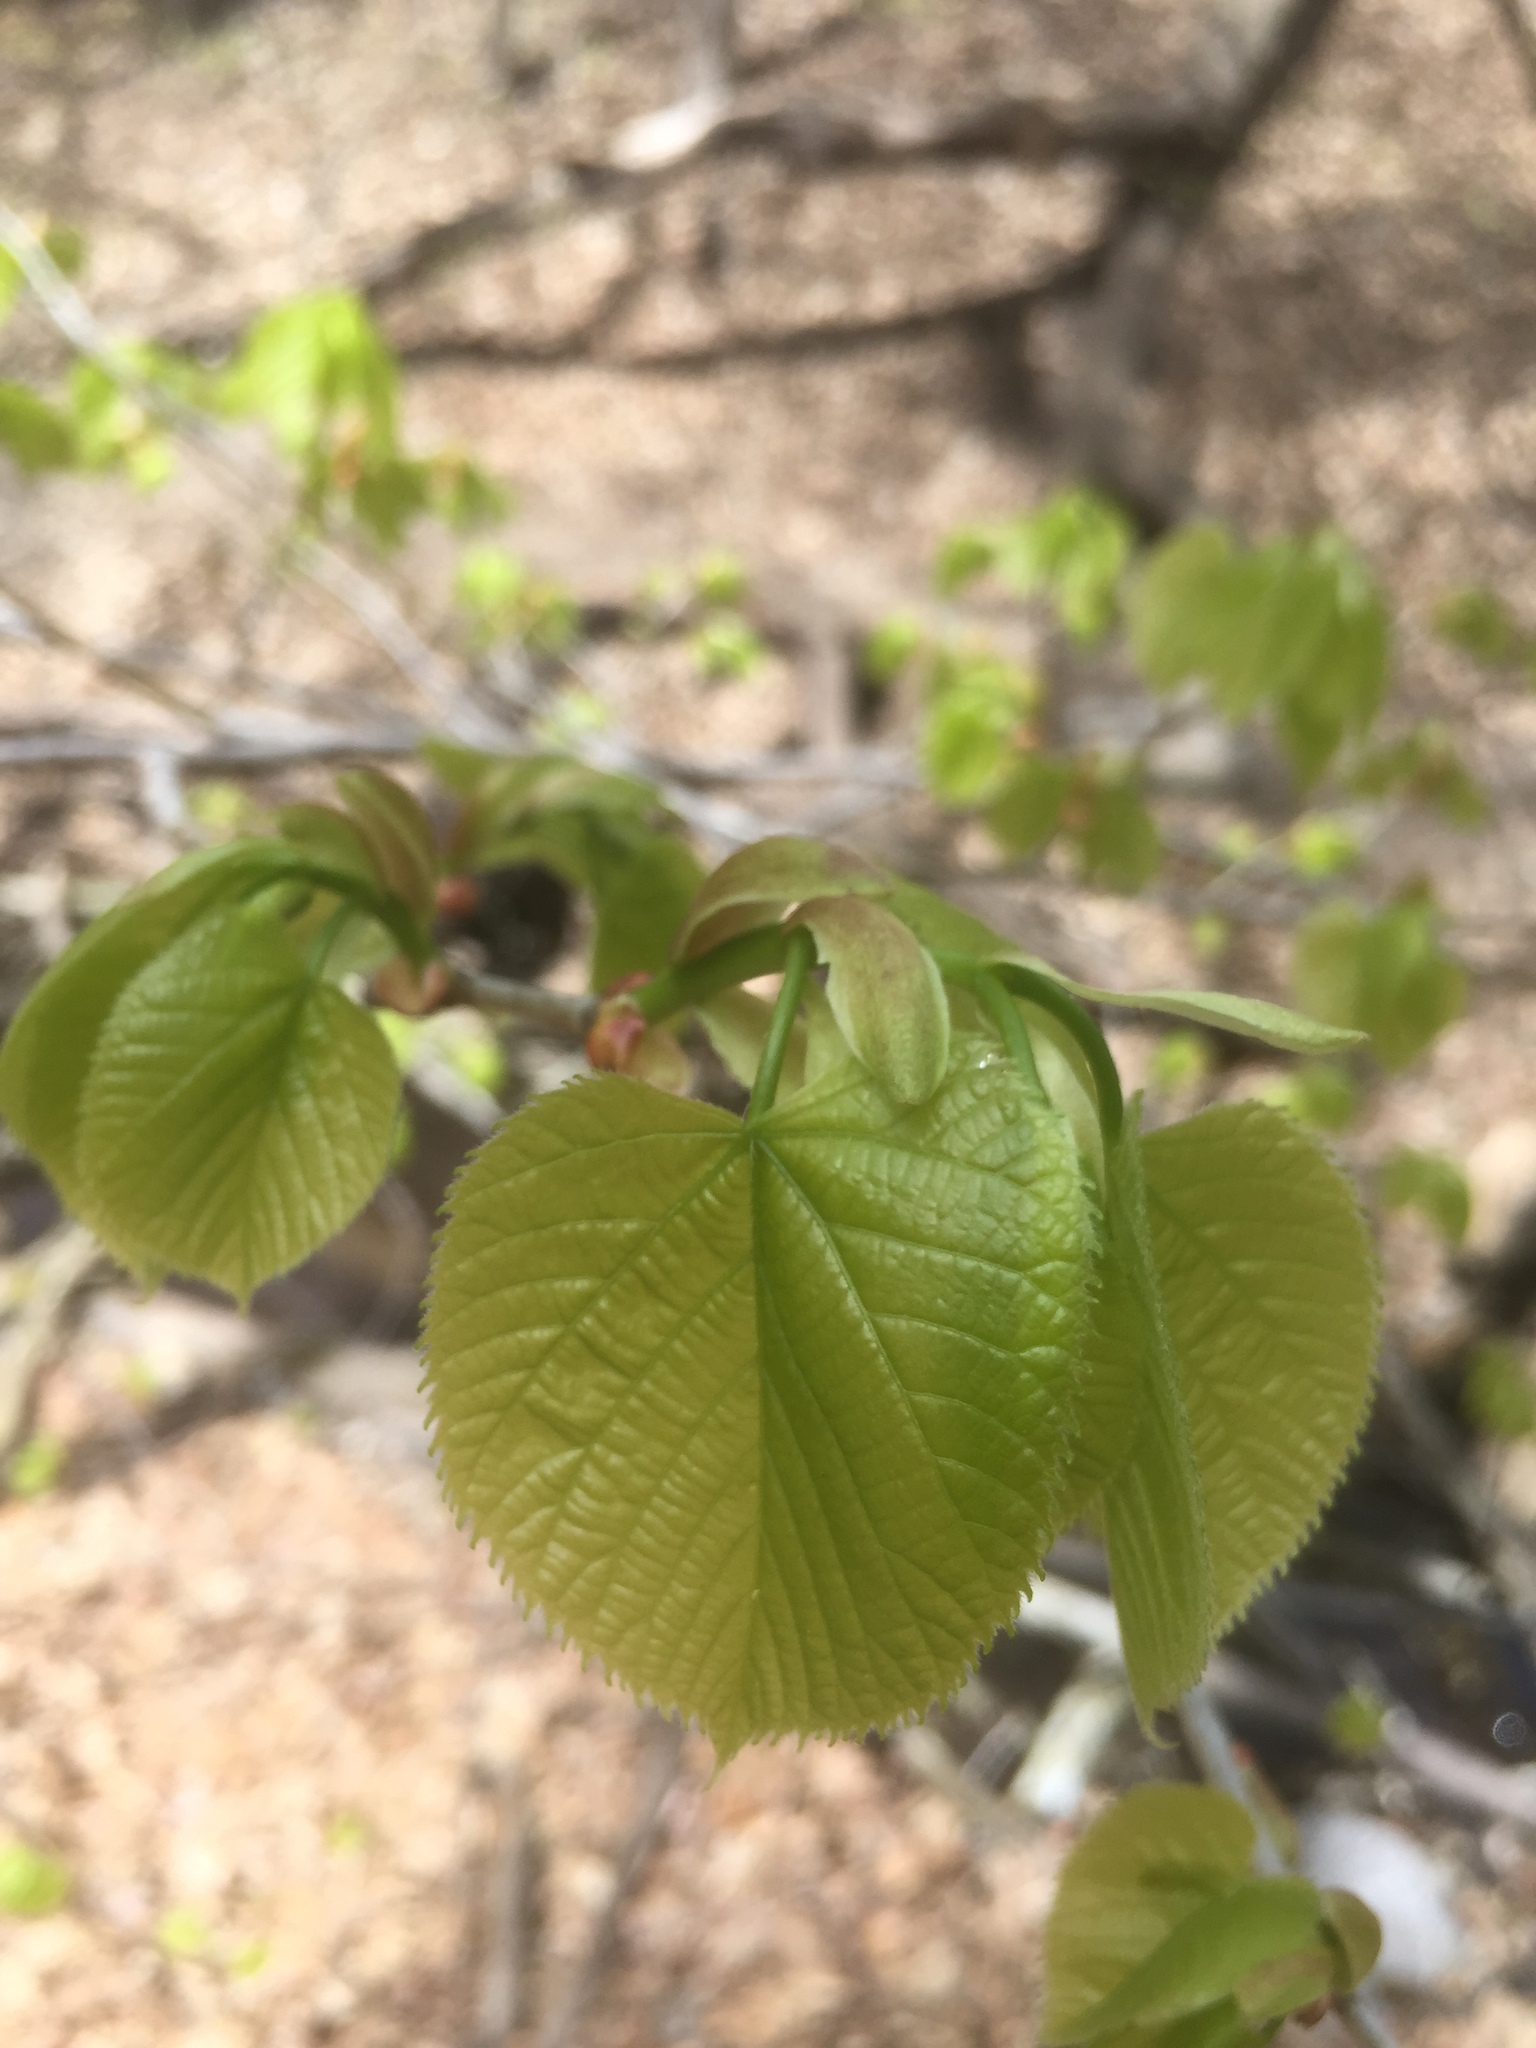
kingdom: Plantae
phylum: Tracheophyta
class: Magnoliopsida
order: Malvales
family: Malvaceae
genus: Tilia
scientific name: Tilia americana
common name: Basswood
